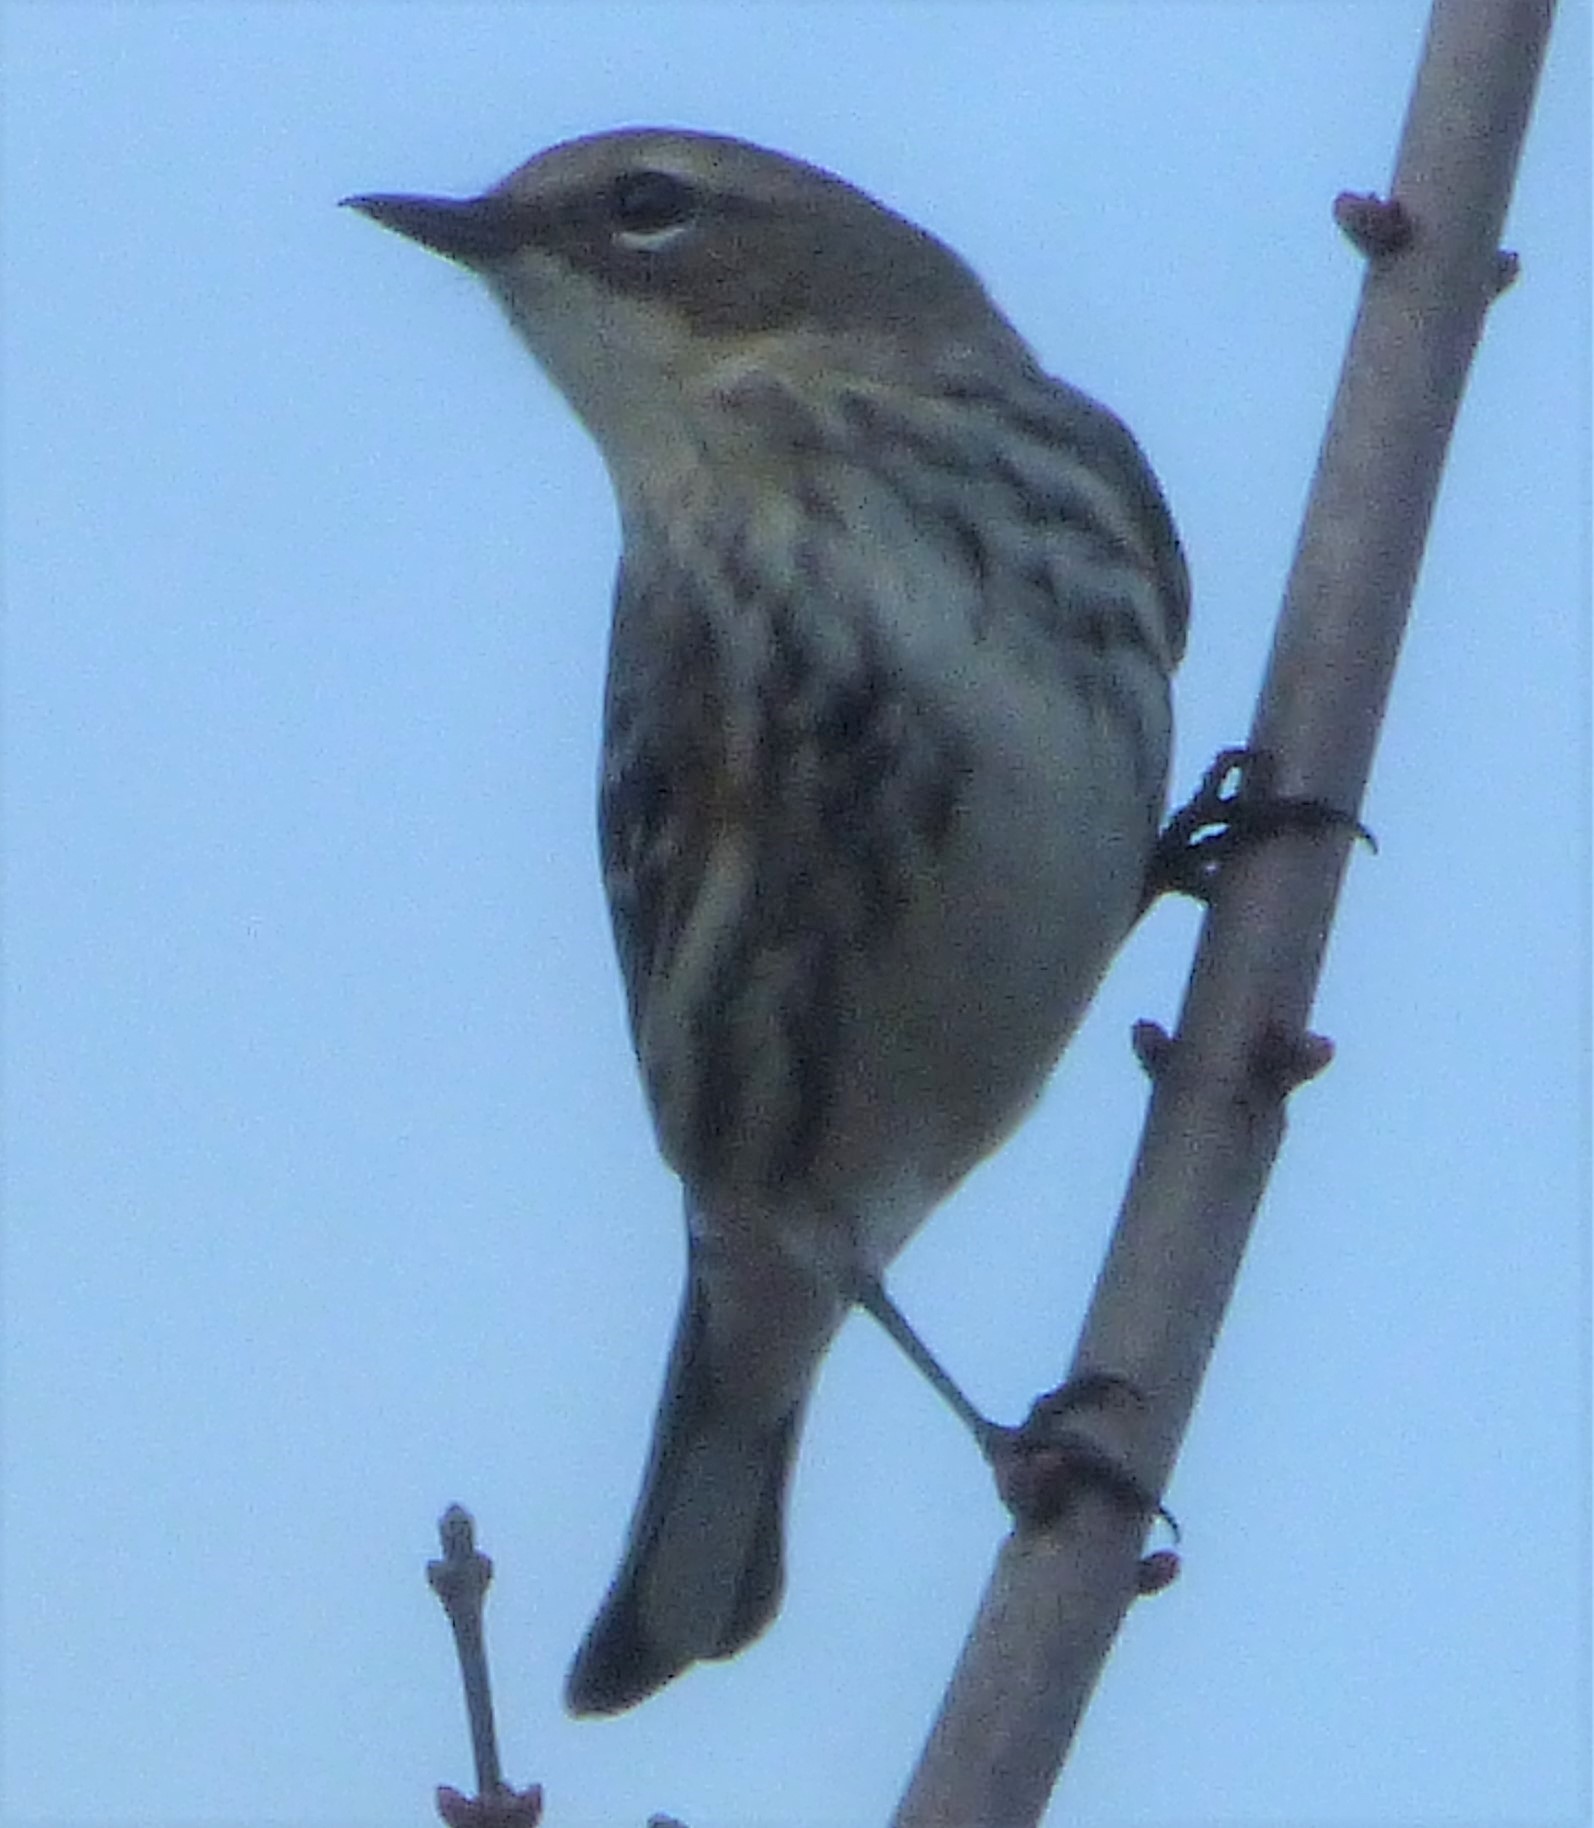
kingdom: Animalia
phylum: Chordata
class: Aves
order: Passeriformes
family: Parulidae
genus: Setophaga
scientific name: Setophaga coronata
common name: Myrtle warbler
